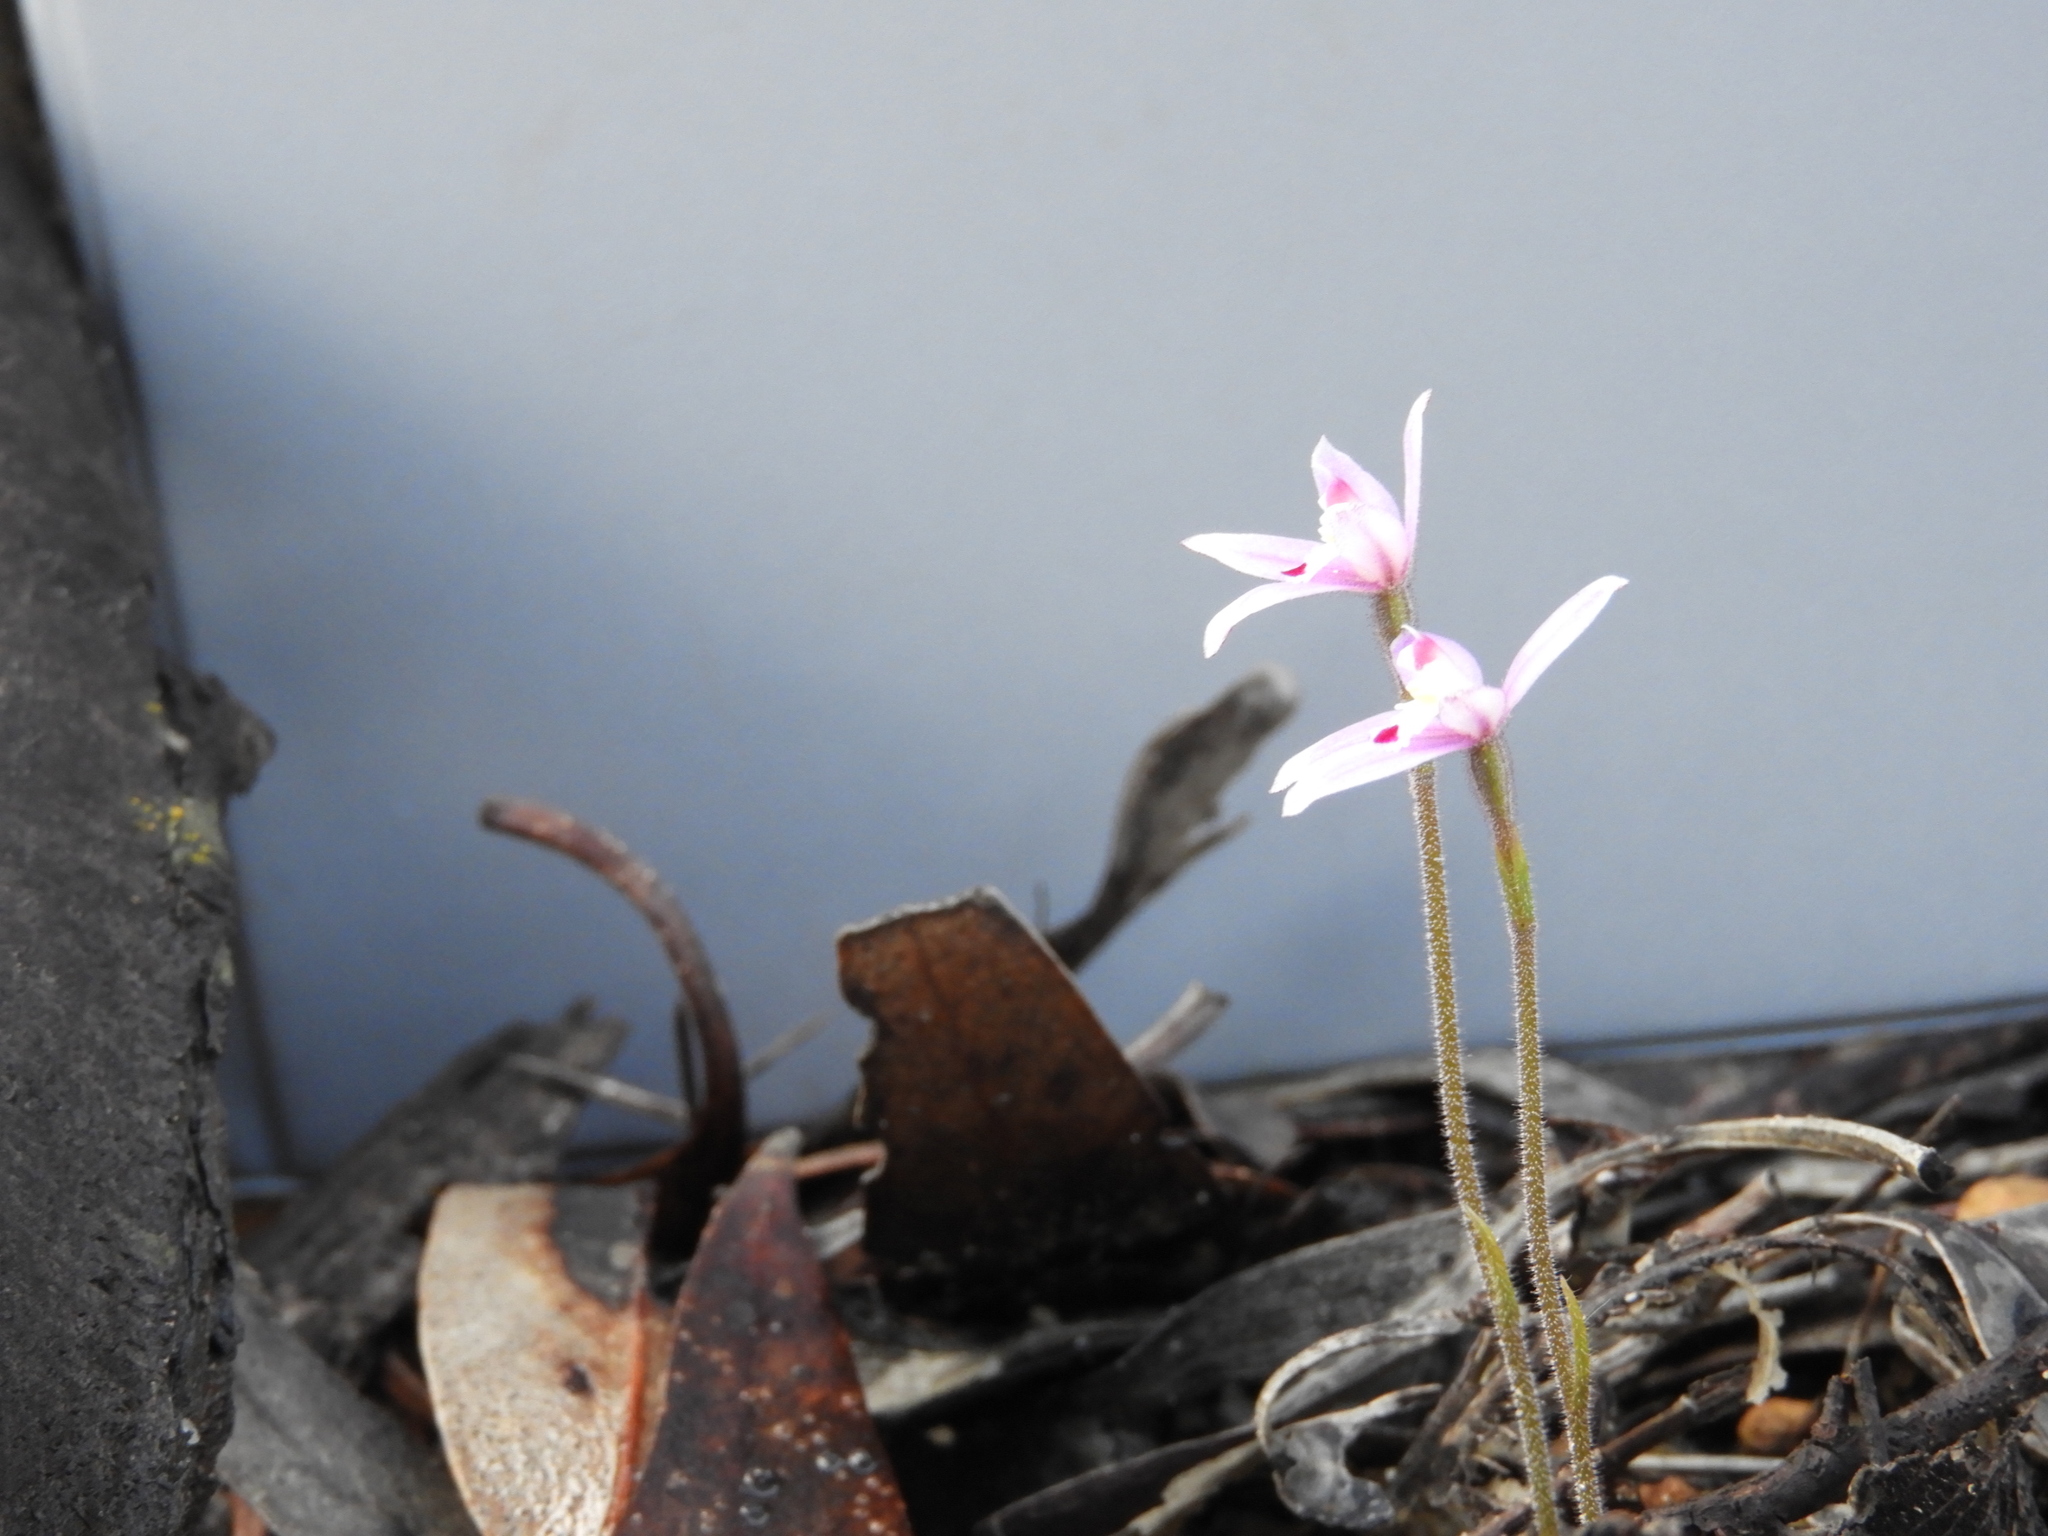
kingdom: Plantae
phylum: Tracheophyta
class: Liliopsida
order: Asparagales
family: Orchidaceae
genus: Caladenia
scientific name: Caladenia reptans
